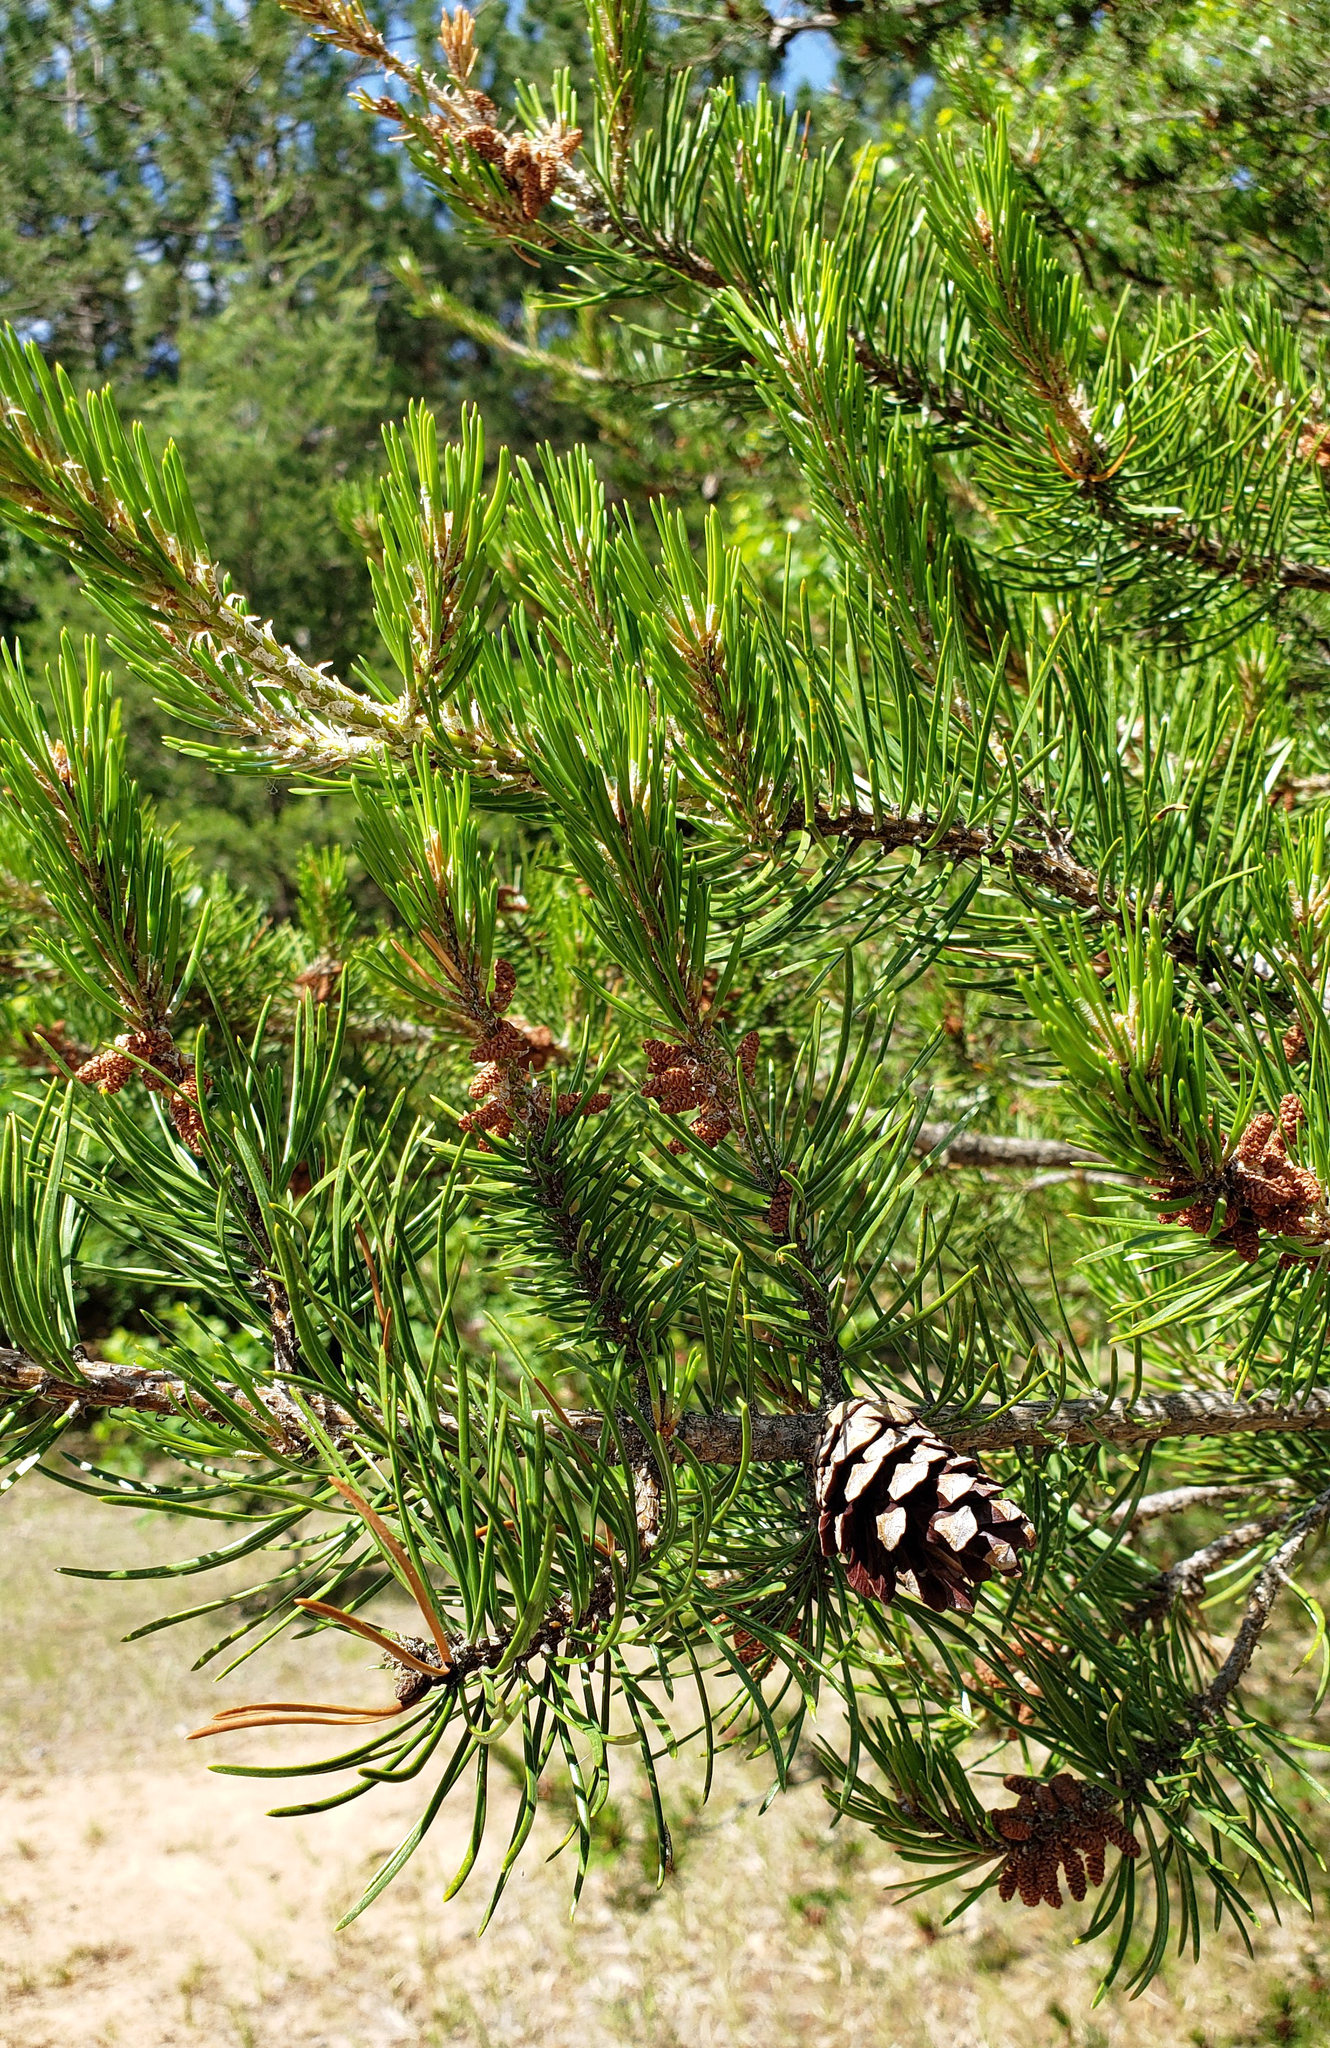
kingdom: Plantae
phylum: Tracheophyta
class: Pinopsida
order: Pinales
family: Pinaceae
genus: Pinus
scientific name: Pinus banksiana
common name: Jack pine
